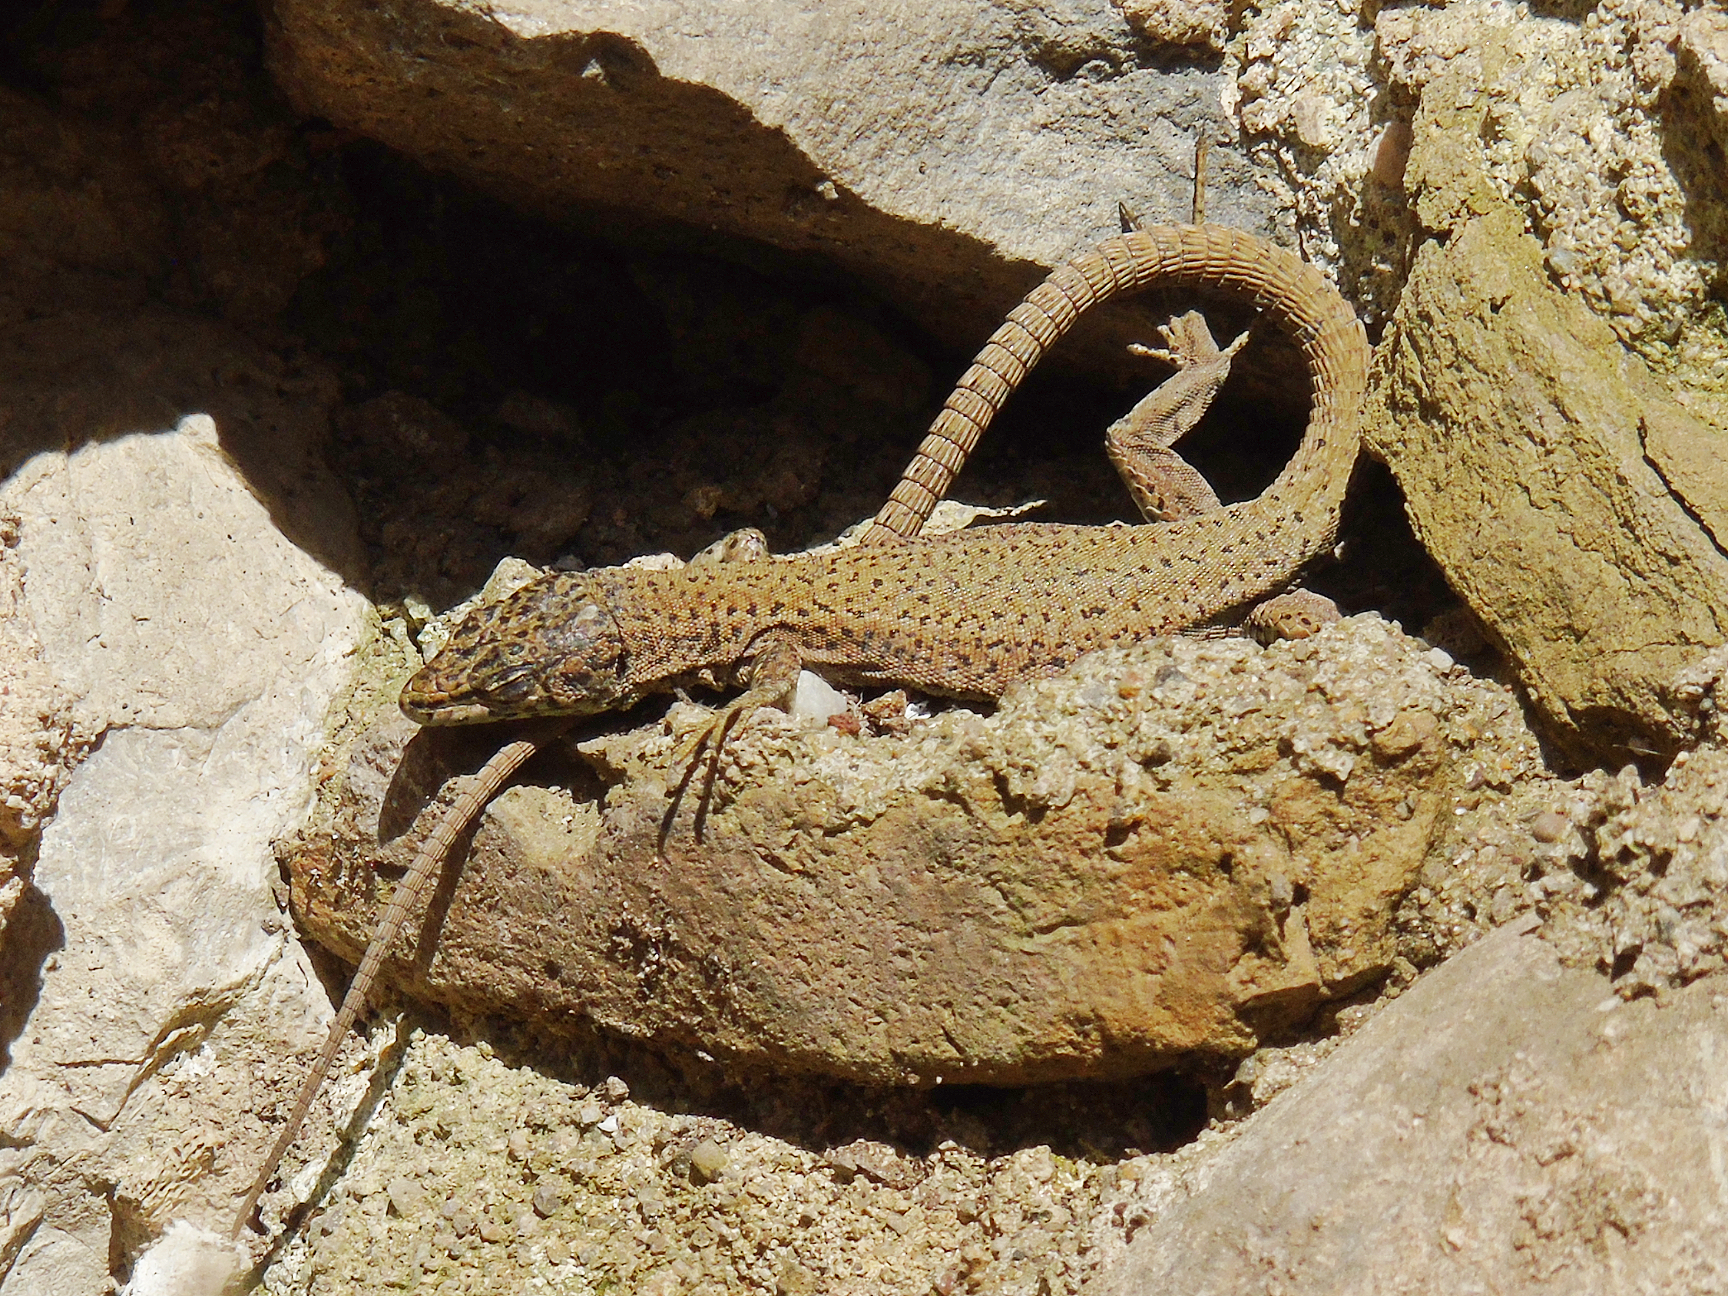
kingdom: Animalia
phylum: Chordata
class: Squamata
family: Lacertidae
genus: Podarcis
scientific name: Podarcis liolepis
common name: Catalonian wall lizard
